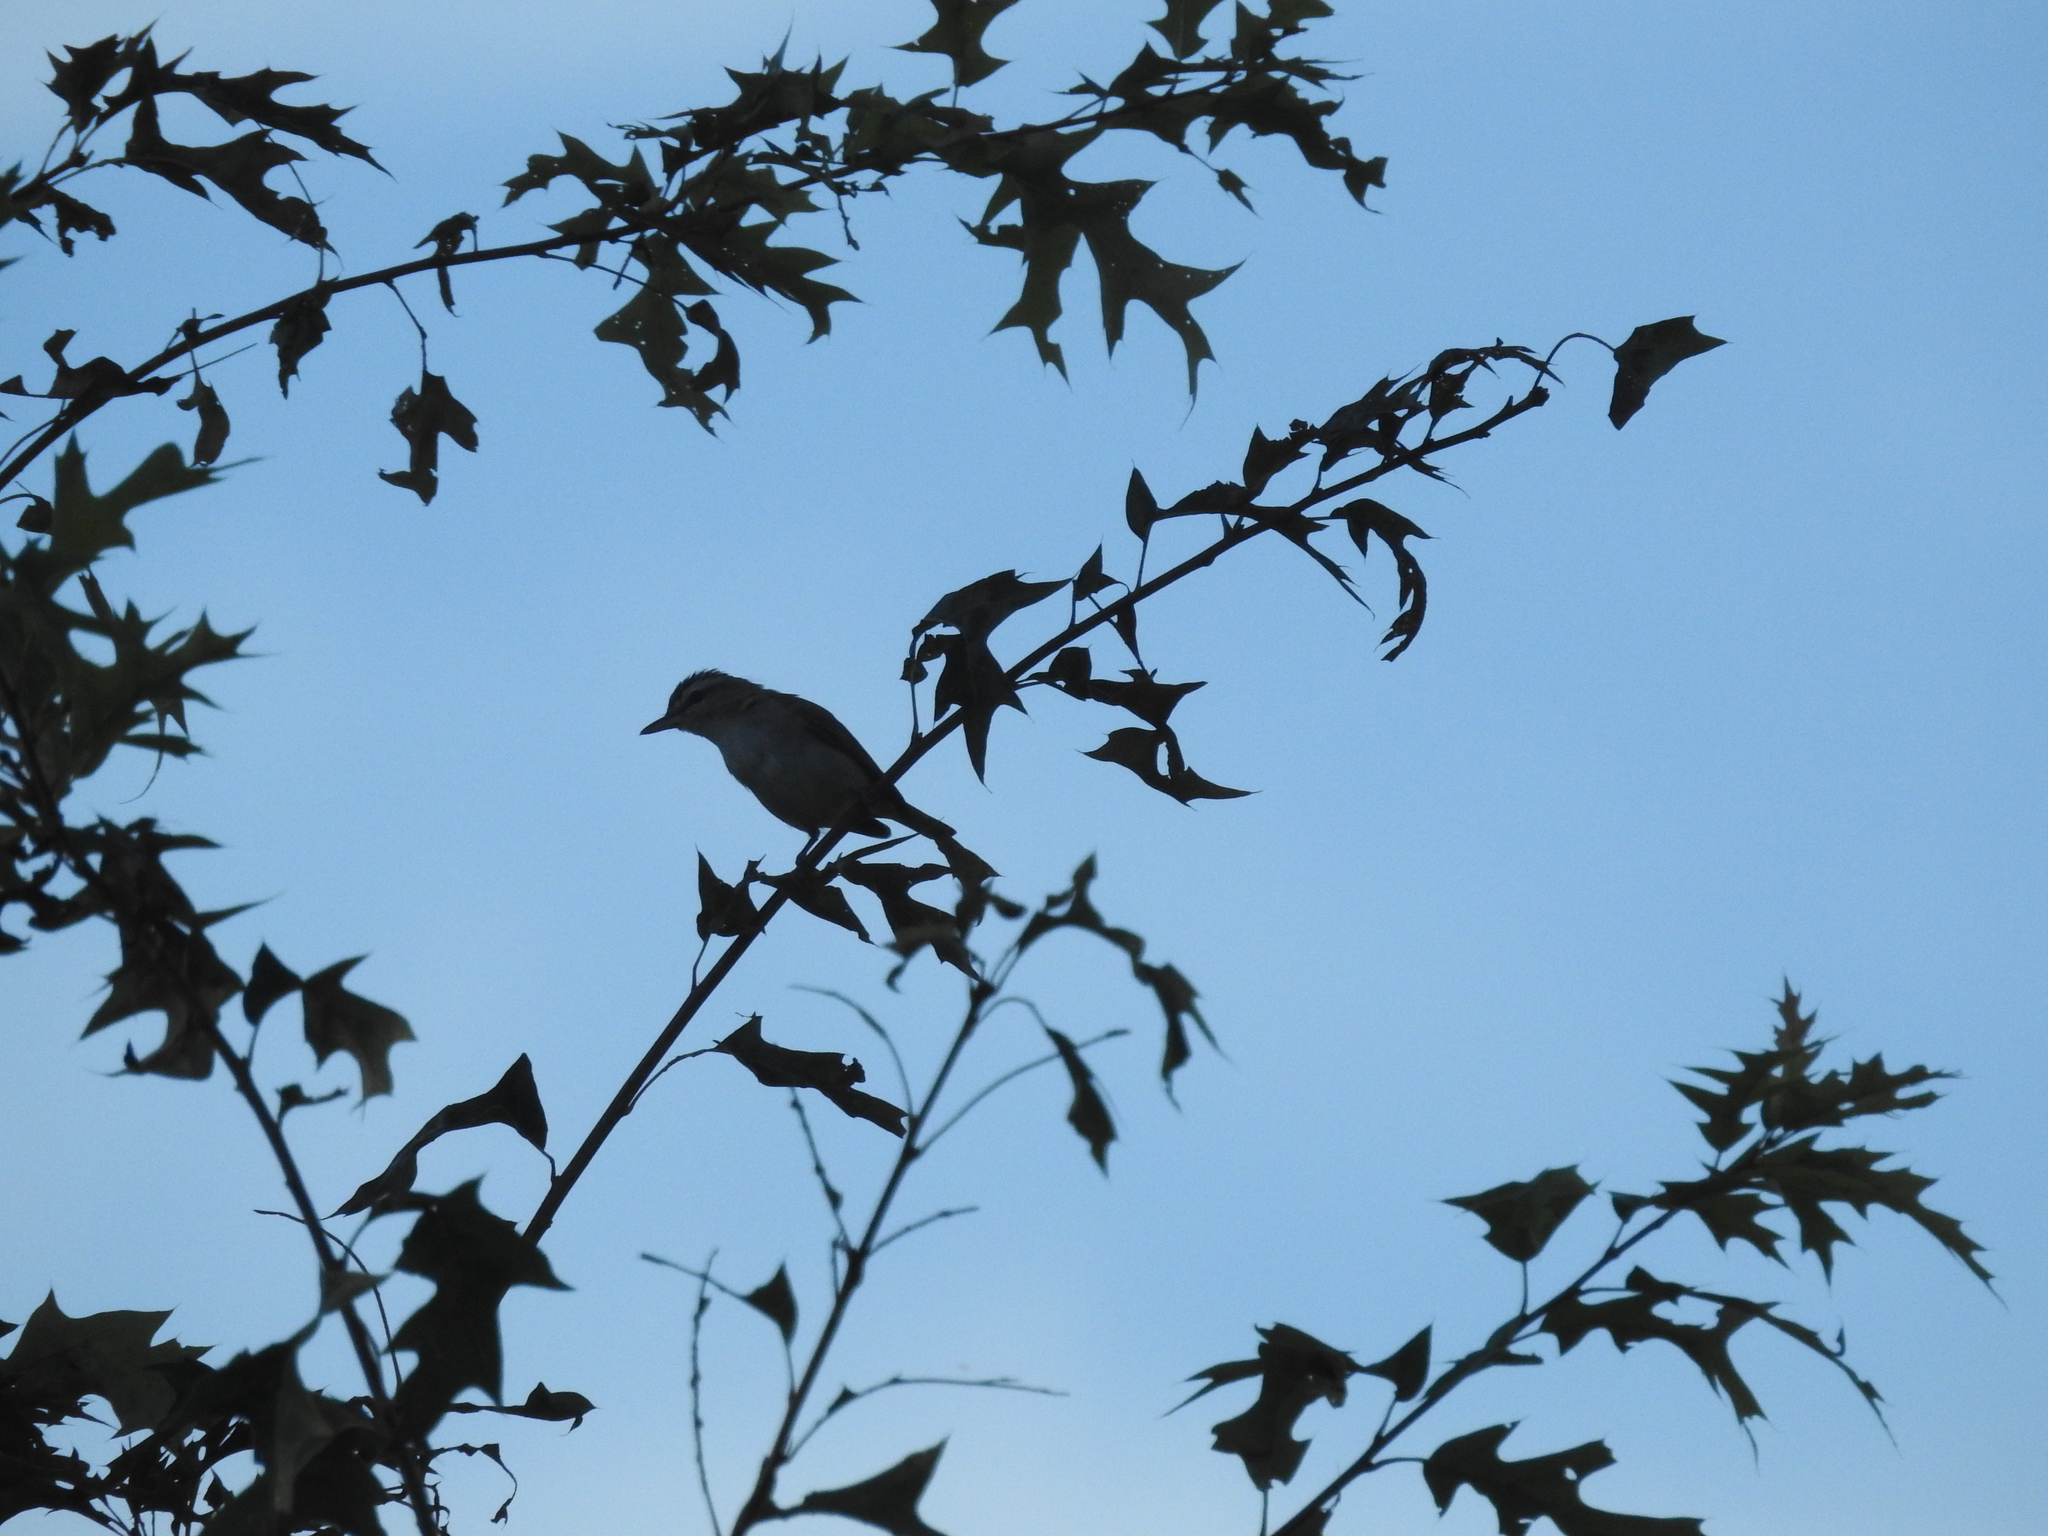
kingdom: Animalia
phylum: Chordata
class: Aves
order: Passeriformes
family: Vireonidae
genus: Vireo
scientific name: Vireo olivaceus
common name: Red-eyed vireo
